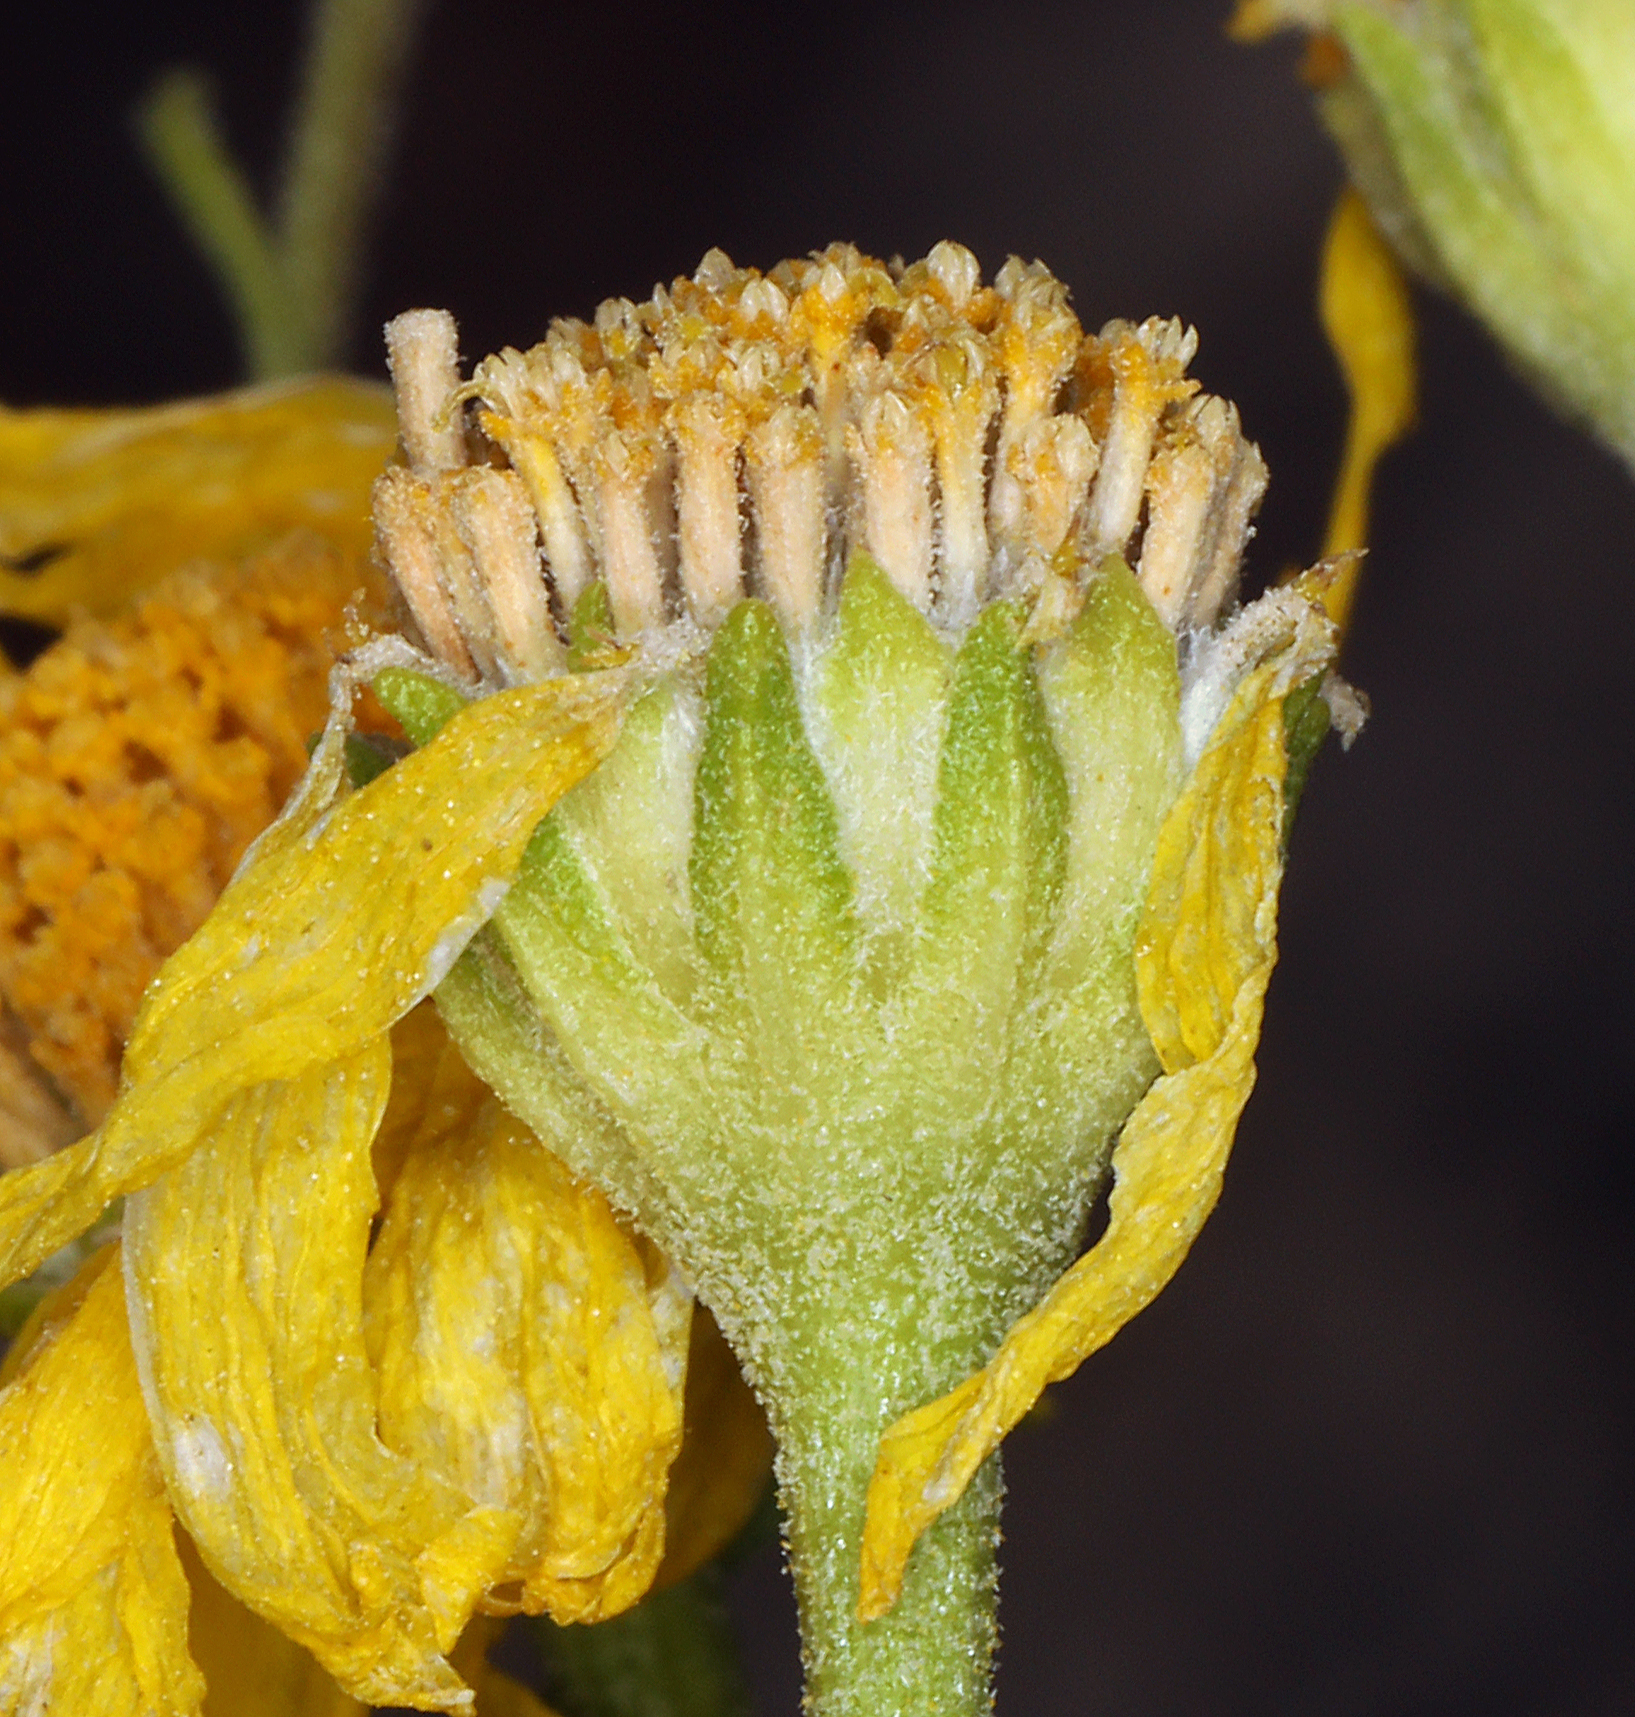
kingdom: Plantae
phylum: Tracheophyta
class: Magnoliopsida
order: Asterales
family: Asteraceae
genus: Hymenoxys
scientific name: Hymenoxys cooperi
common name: Cooper's bitterweed
